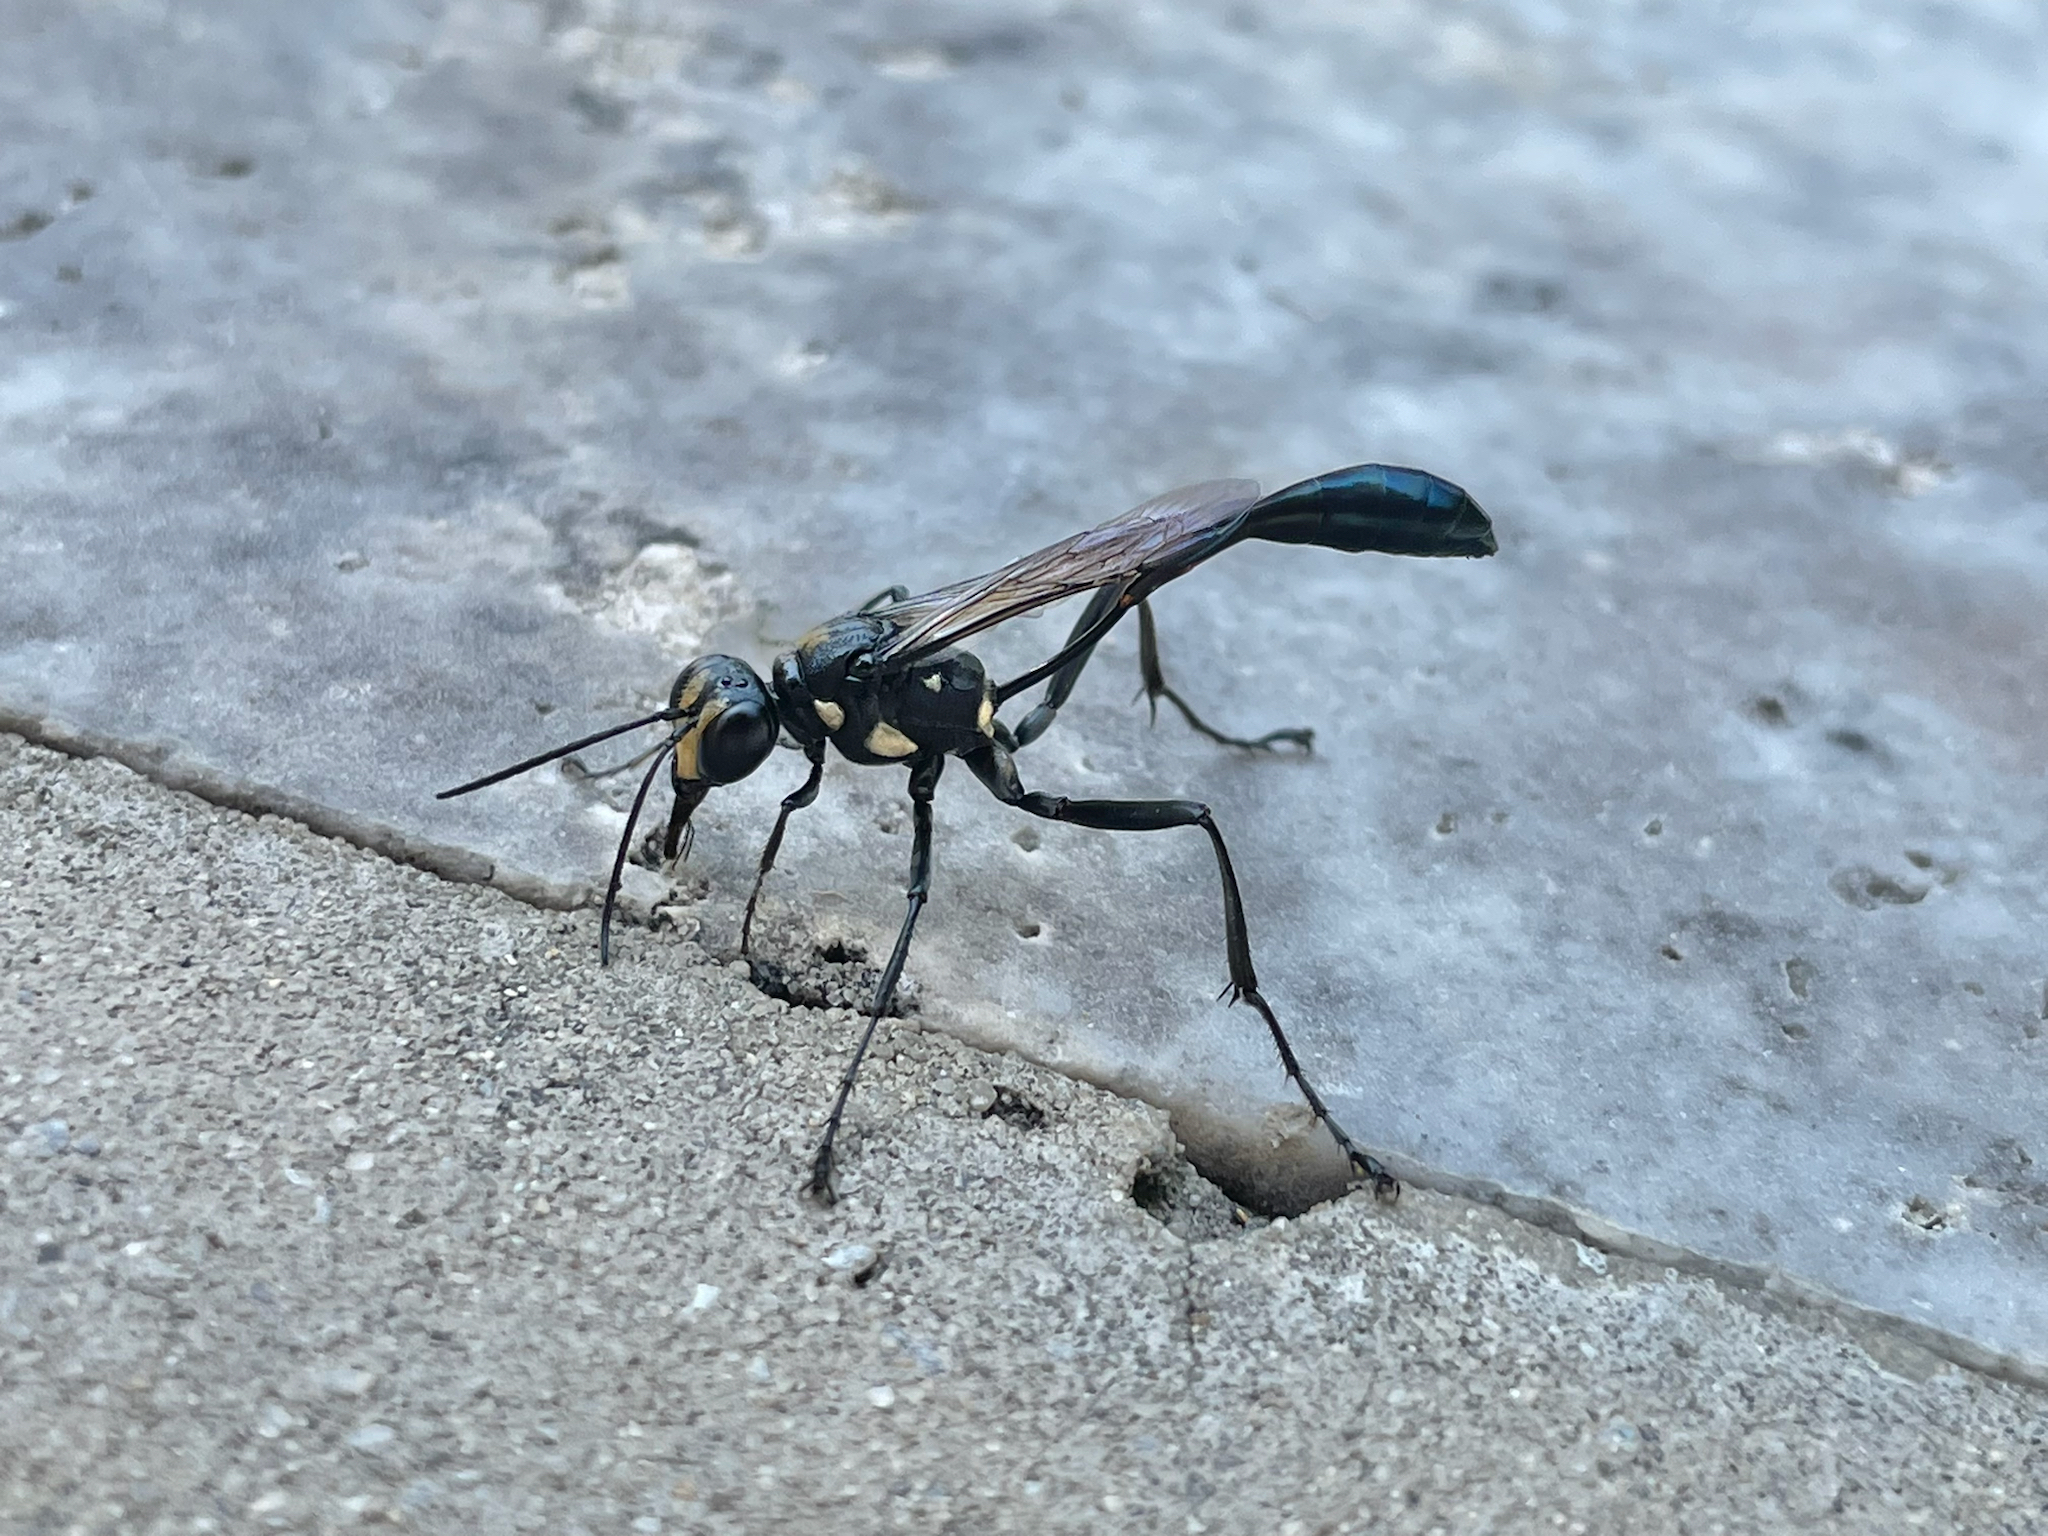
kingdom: Animalia
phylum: Arthropoda
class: Insecta
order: Hymenoptera
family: Sphecidae
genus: Eremnophila
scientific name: Eremnophila aureonotata
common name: Gold-marked thread-waisted wasp
